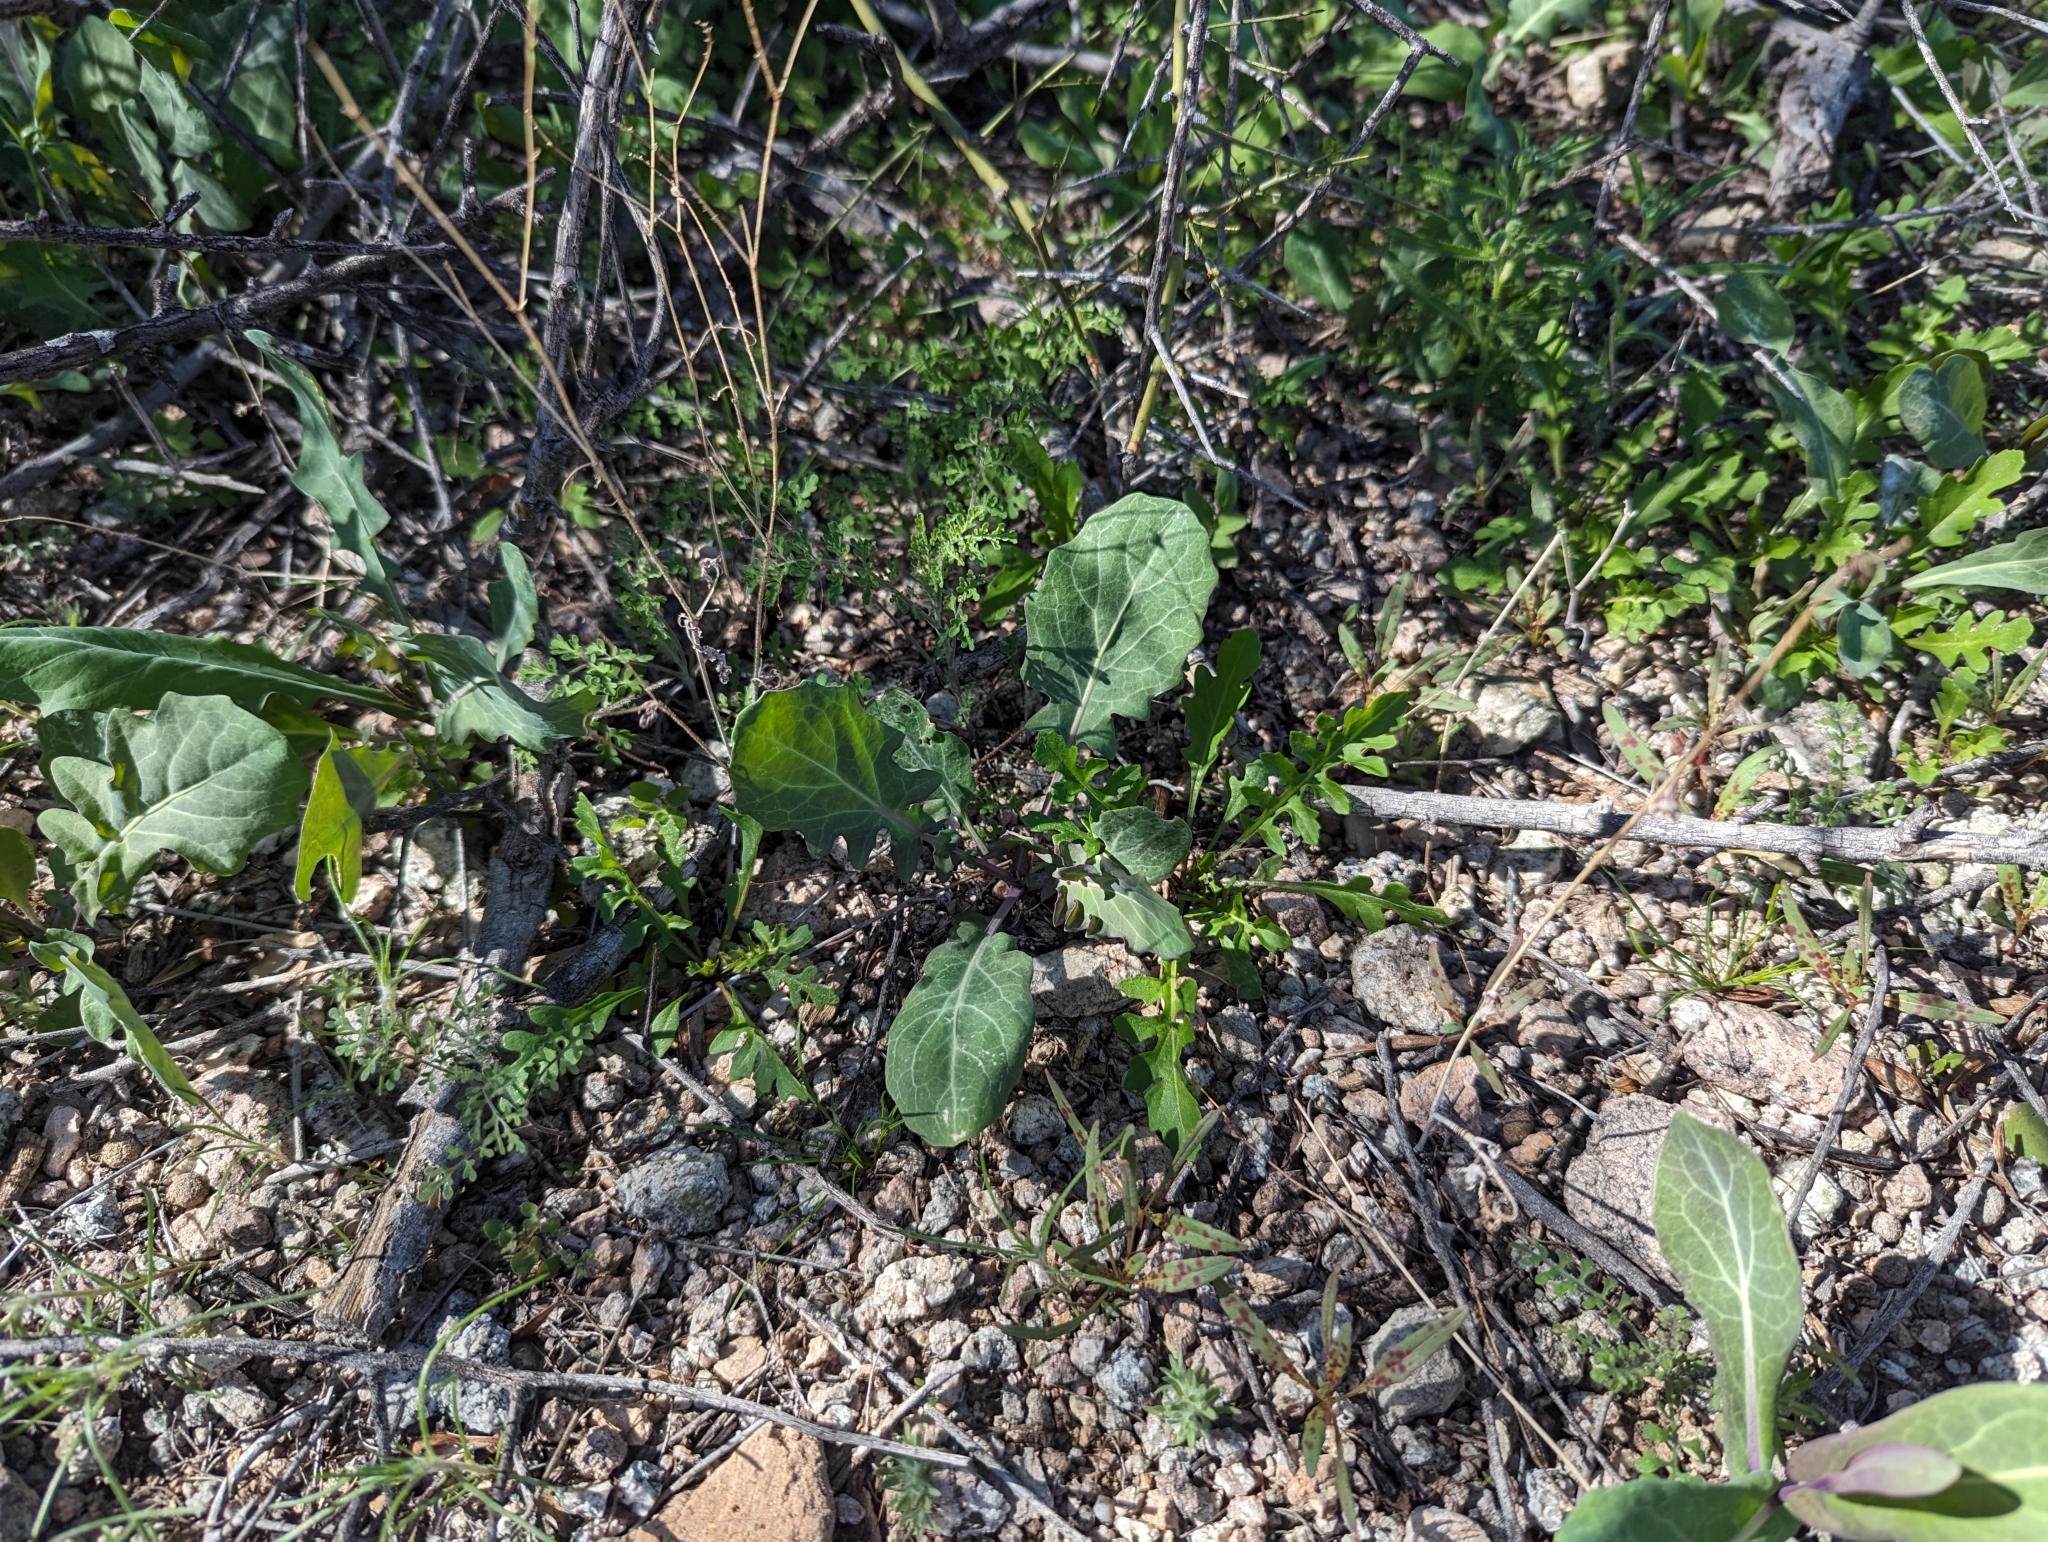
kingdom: Plantae
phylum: Tracheophyta
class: Magnoliopsida
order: Brassicales
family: Brassicaceae
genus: Streptanthus
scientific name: Streptanthus carinatus
